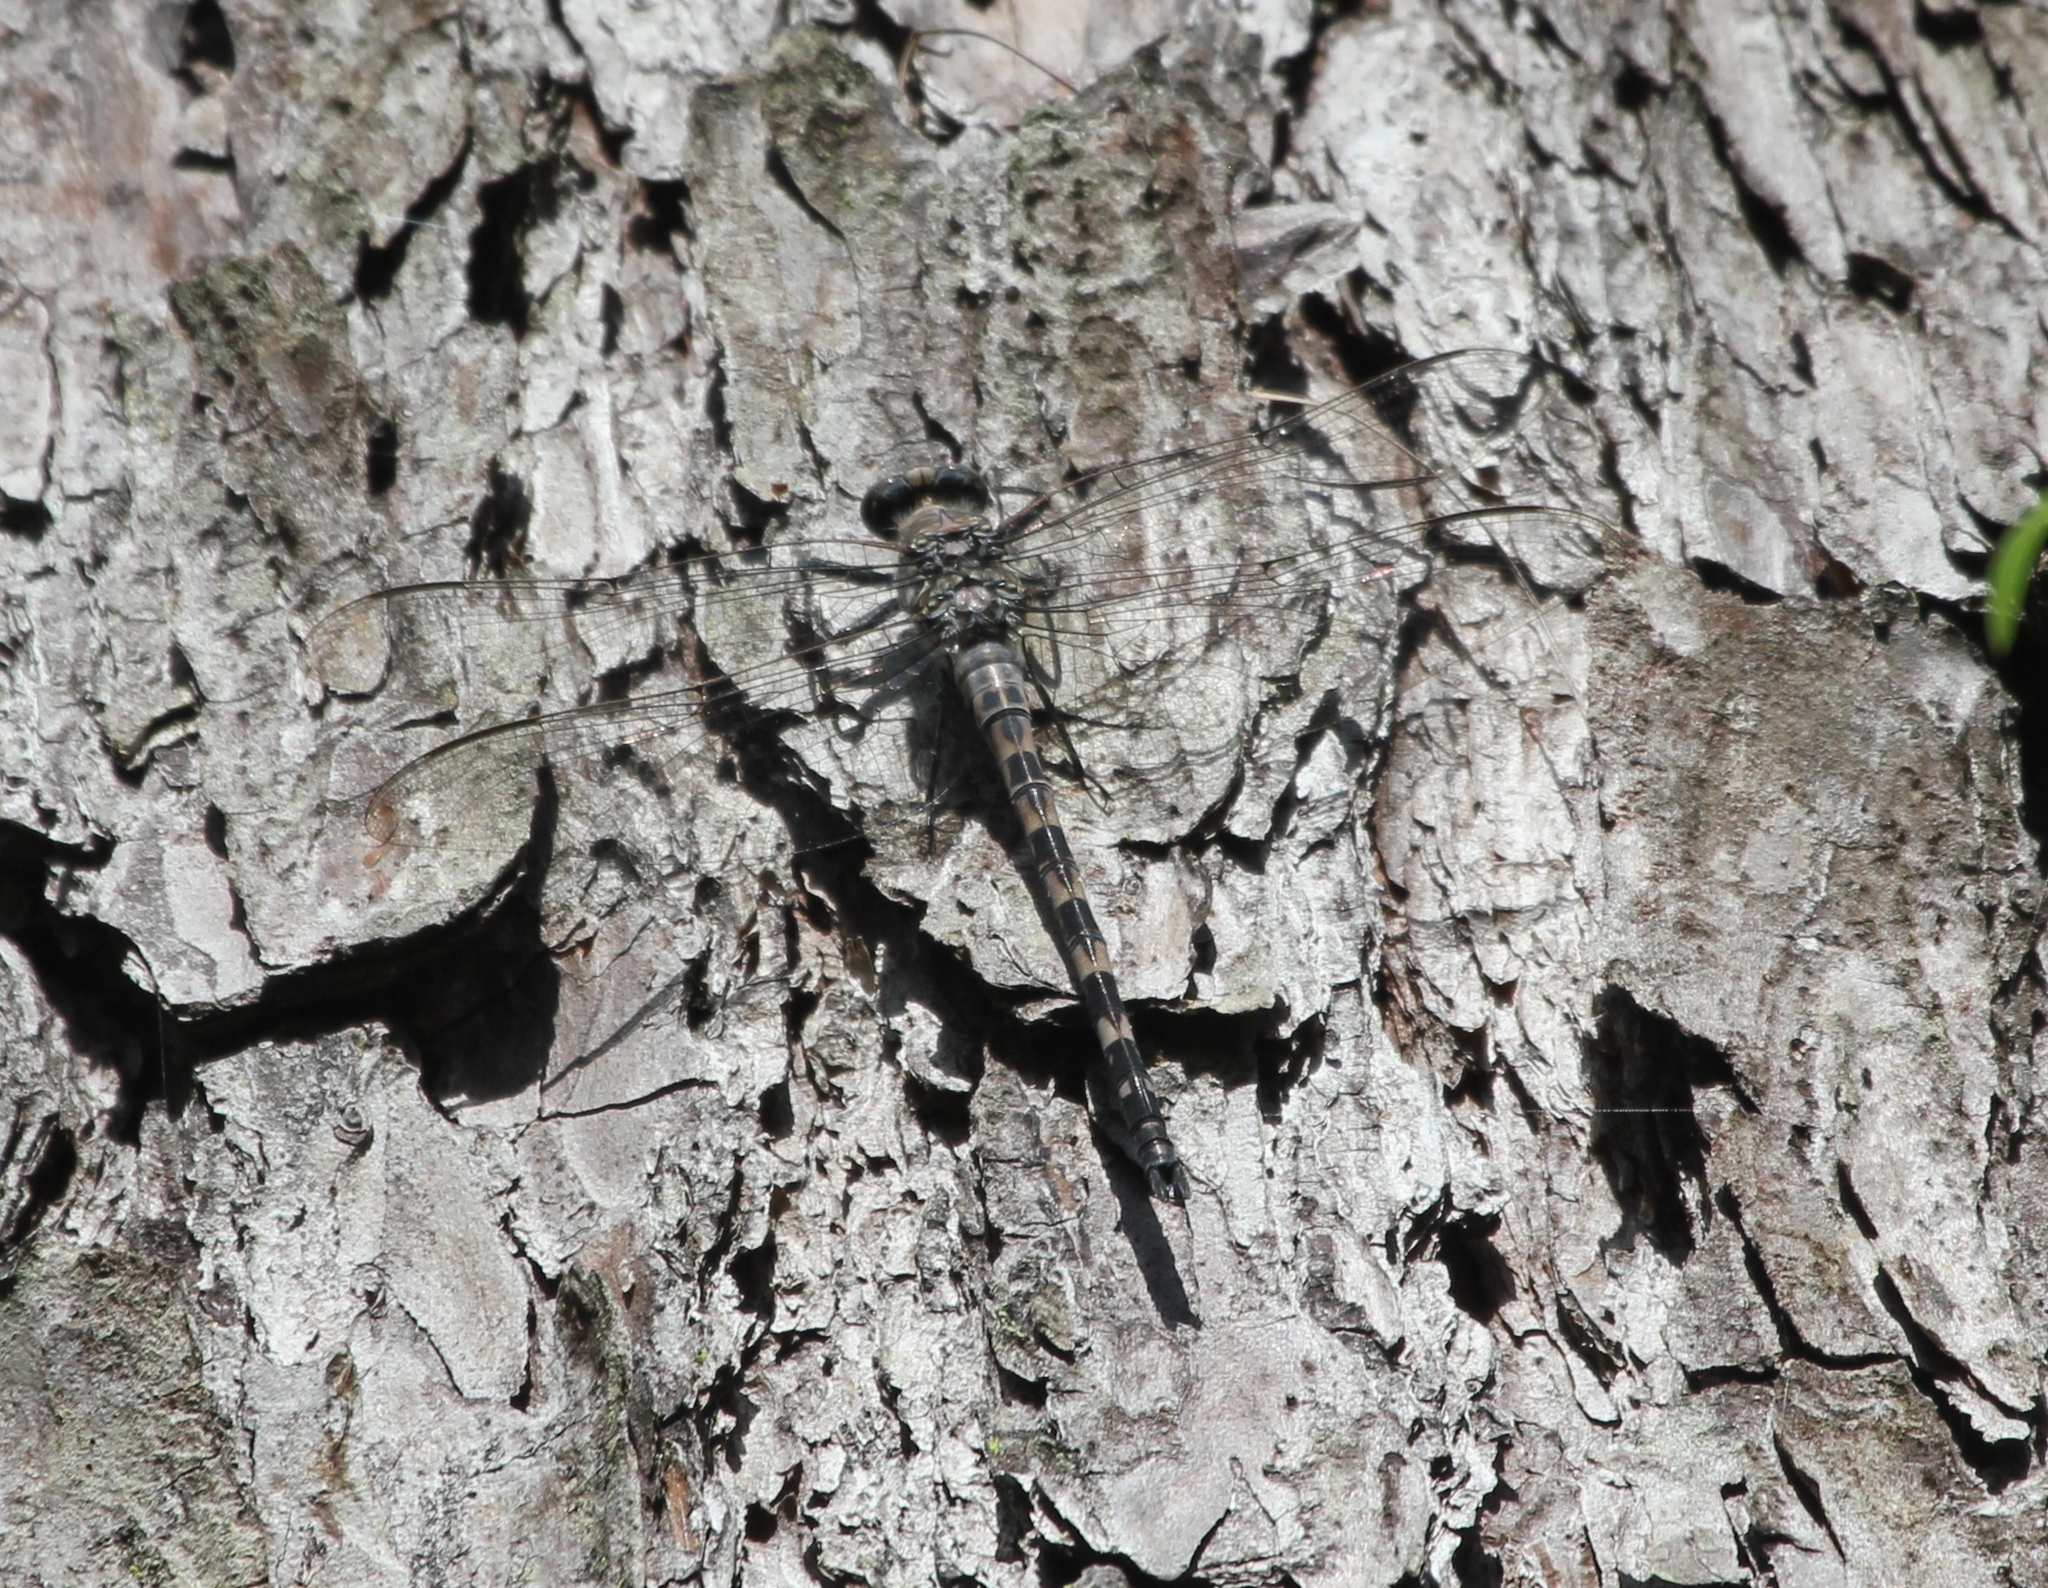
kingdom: Animalia
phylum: Arthropoda
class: Insecta
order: Odonata
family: Petaluridae
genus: Tachopteryx
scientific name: Tachopteryx thoreyi
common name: Gray petaltail
